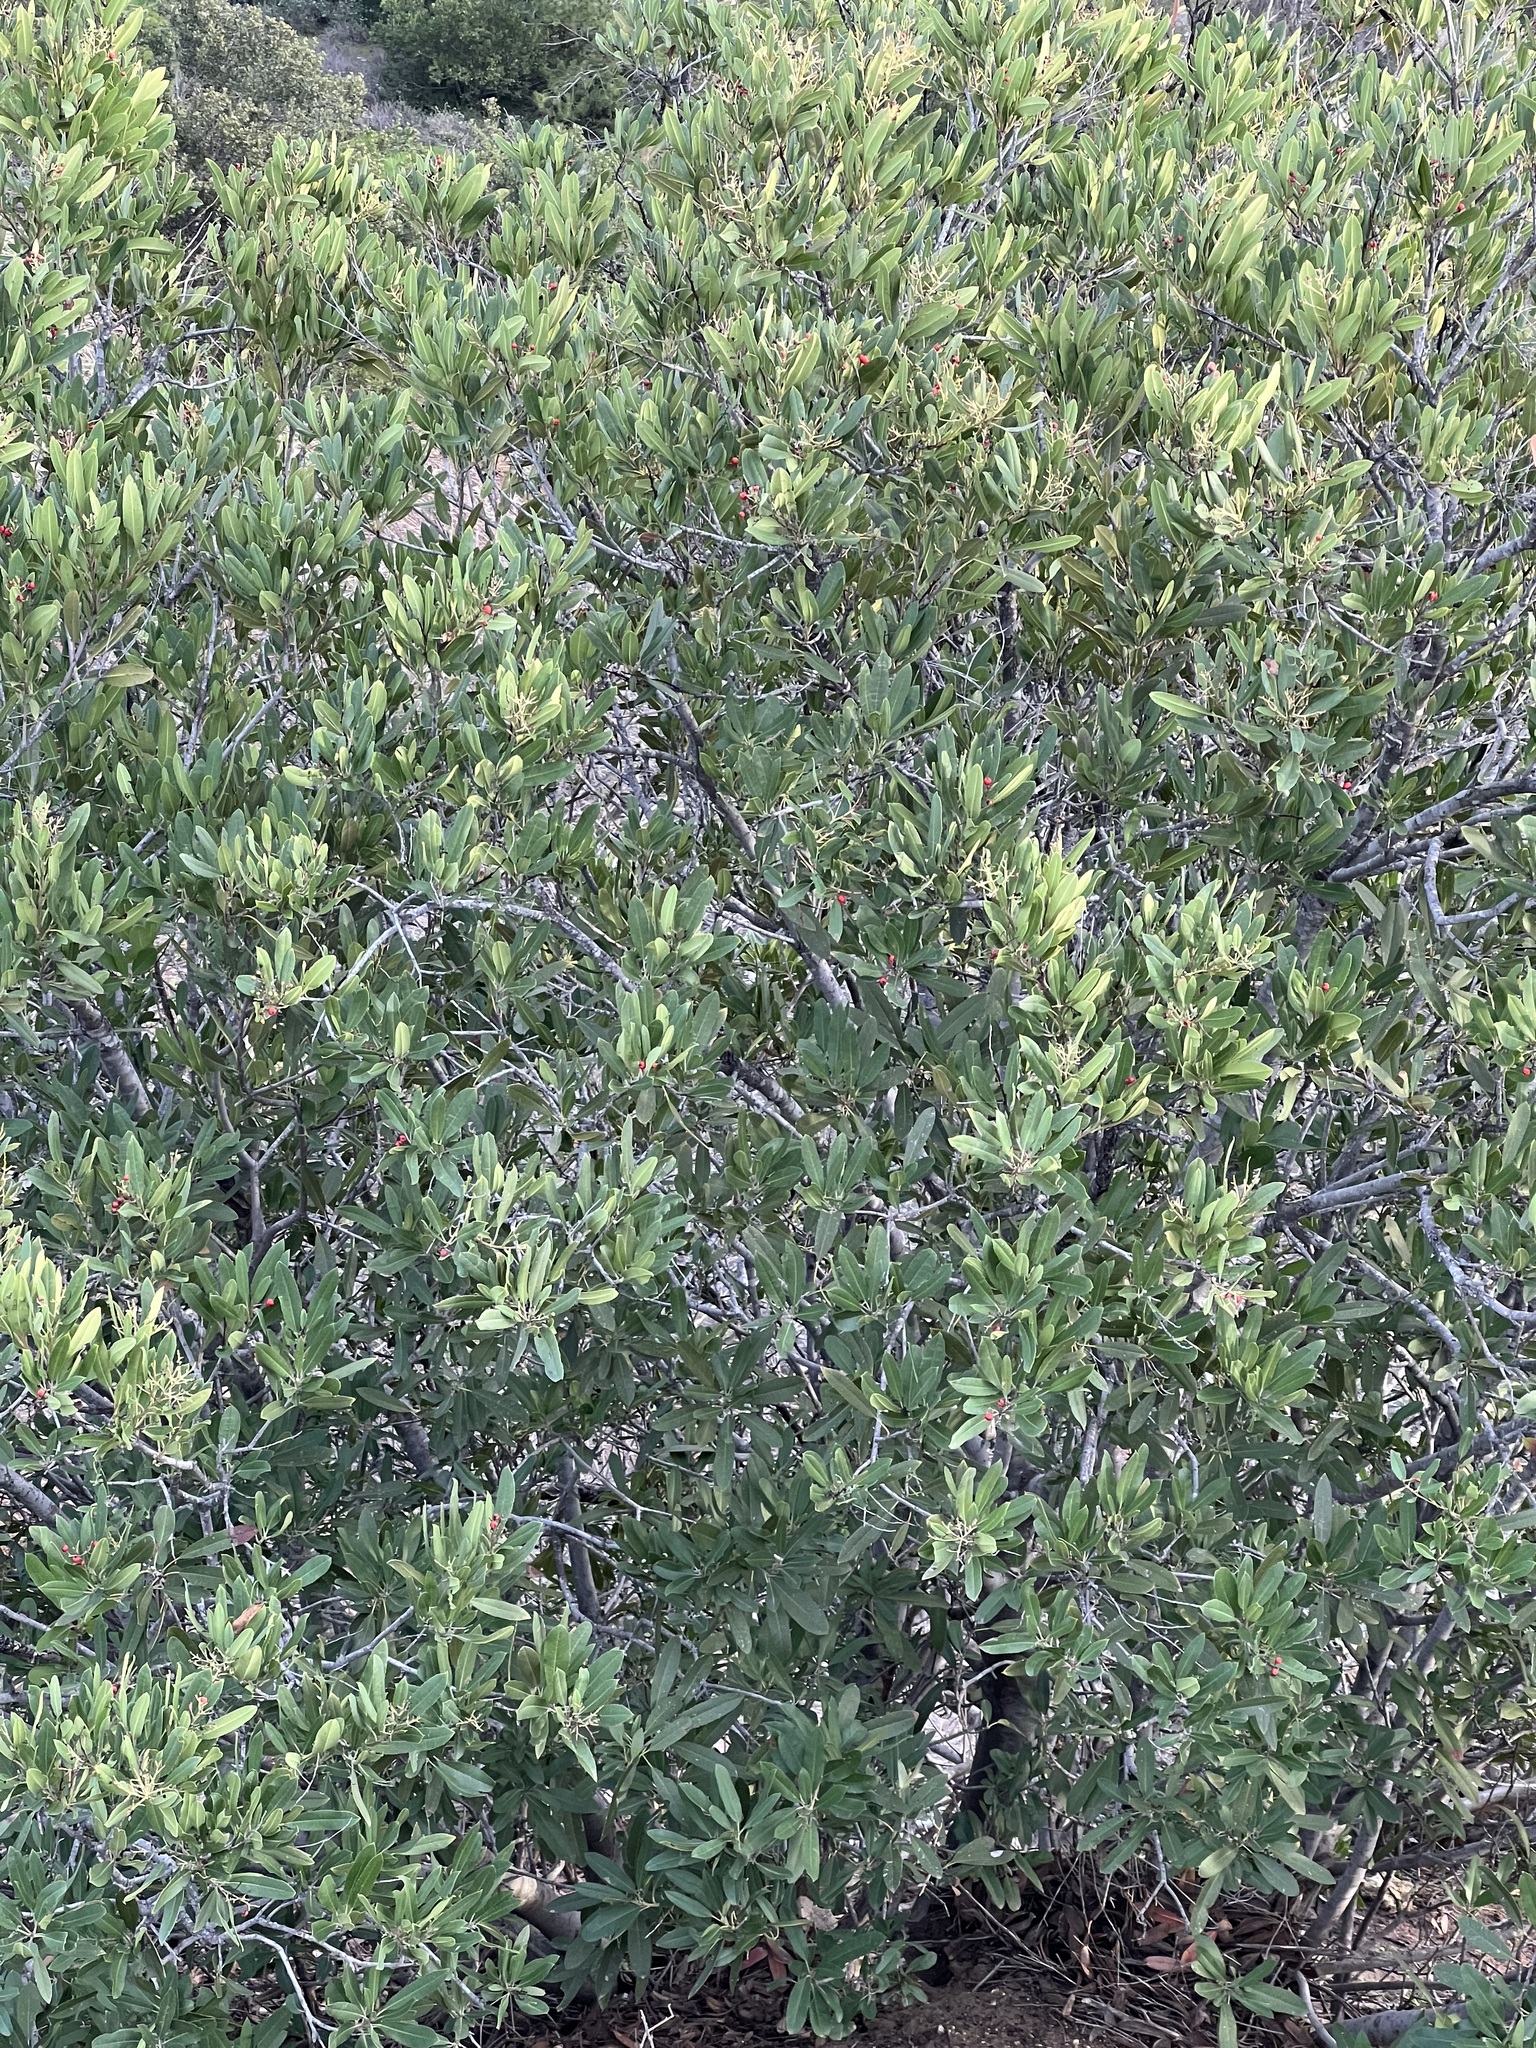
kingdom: Plantae
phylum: Tracheophyta
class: Magnoliopsida
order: Rosales
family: Rosaceae
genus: Heteromeles
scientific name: Heteromeles arbutifolia
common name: California-holly
